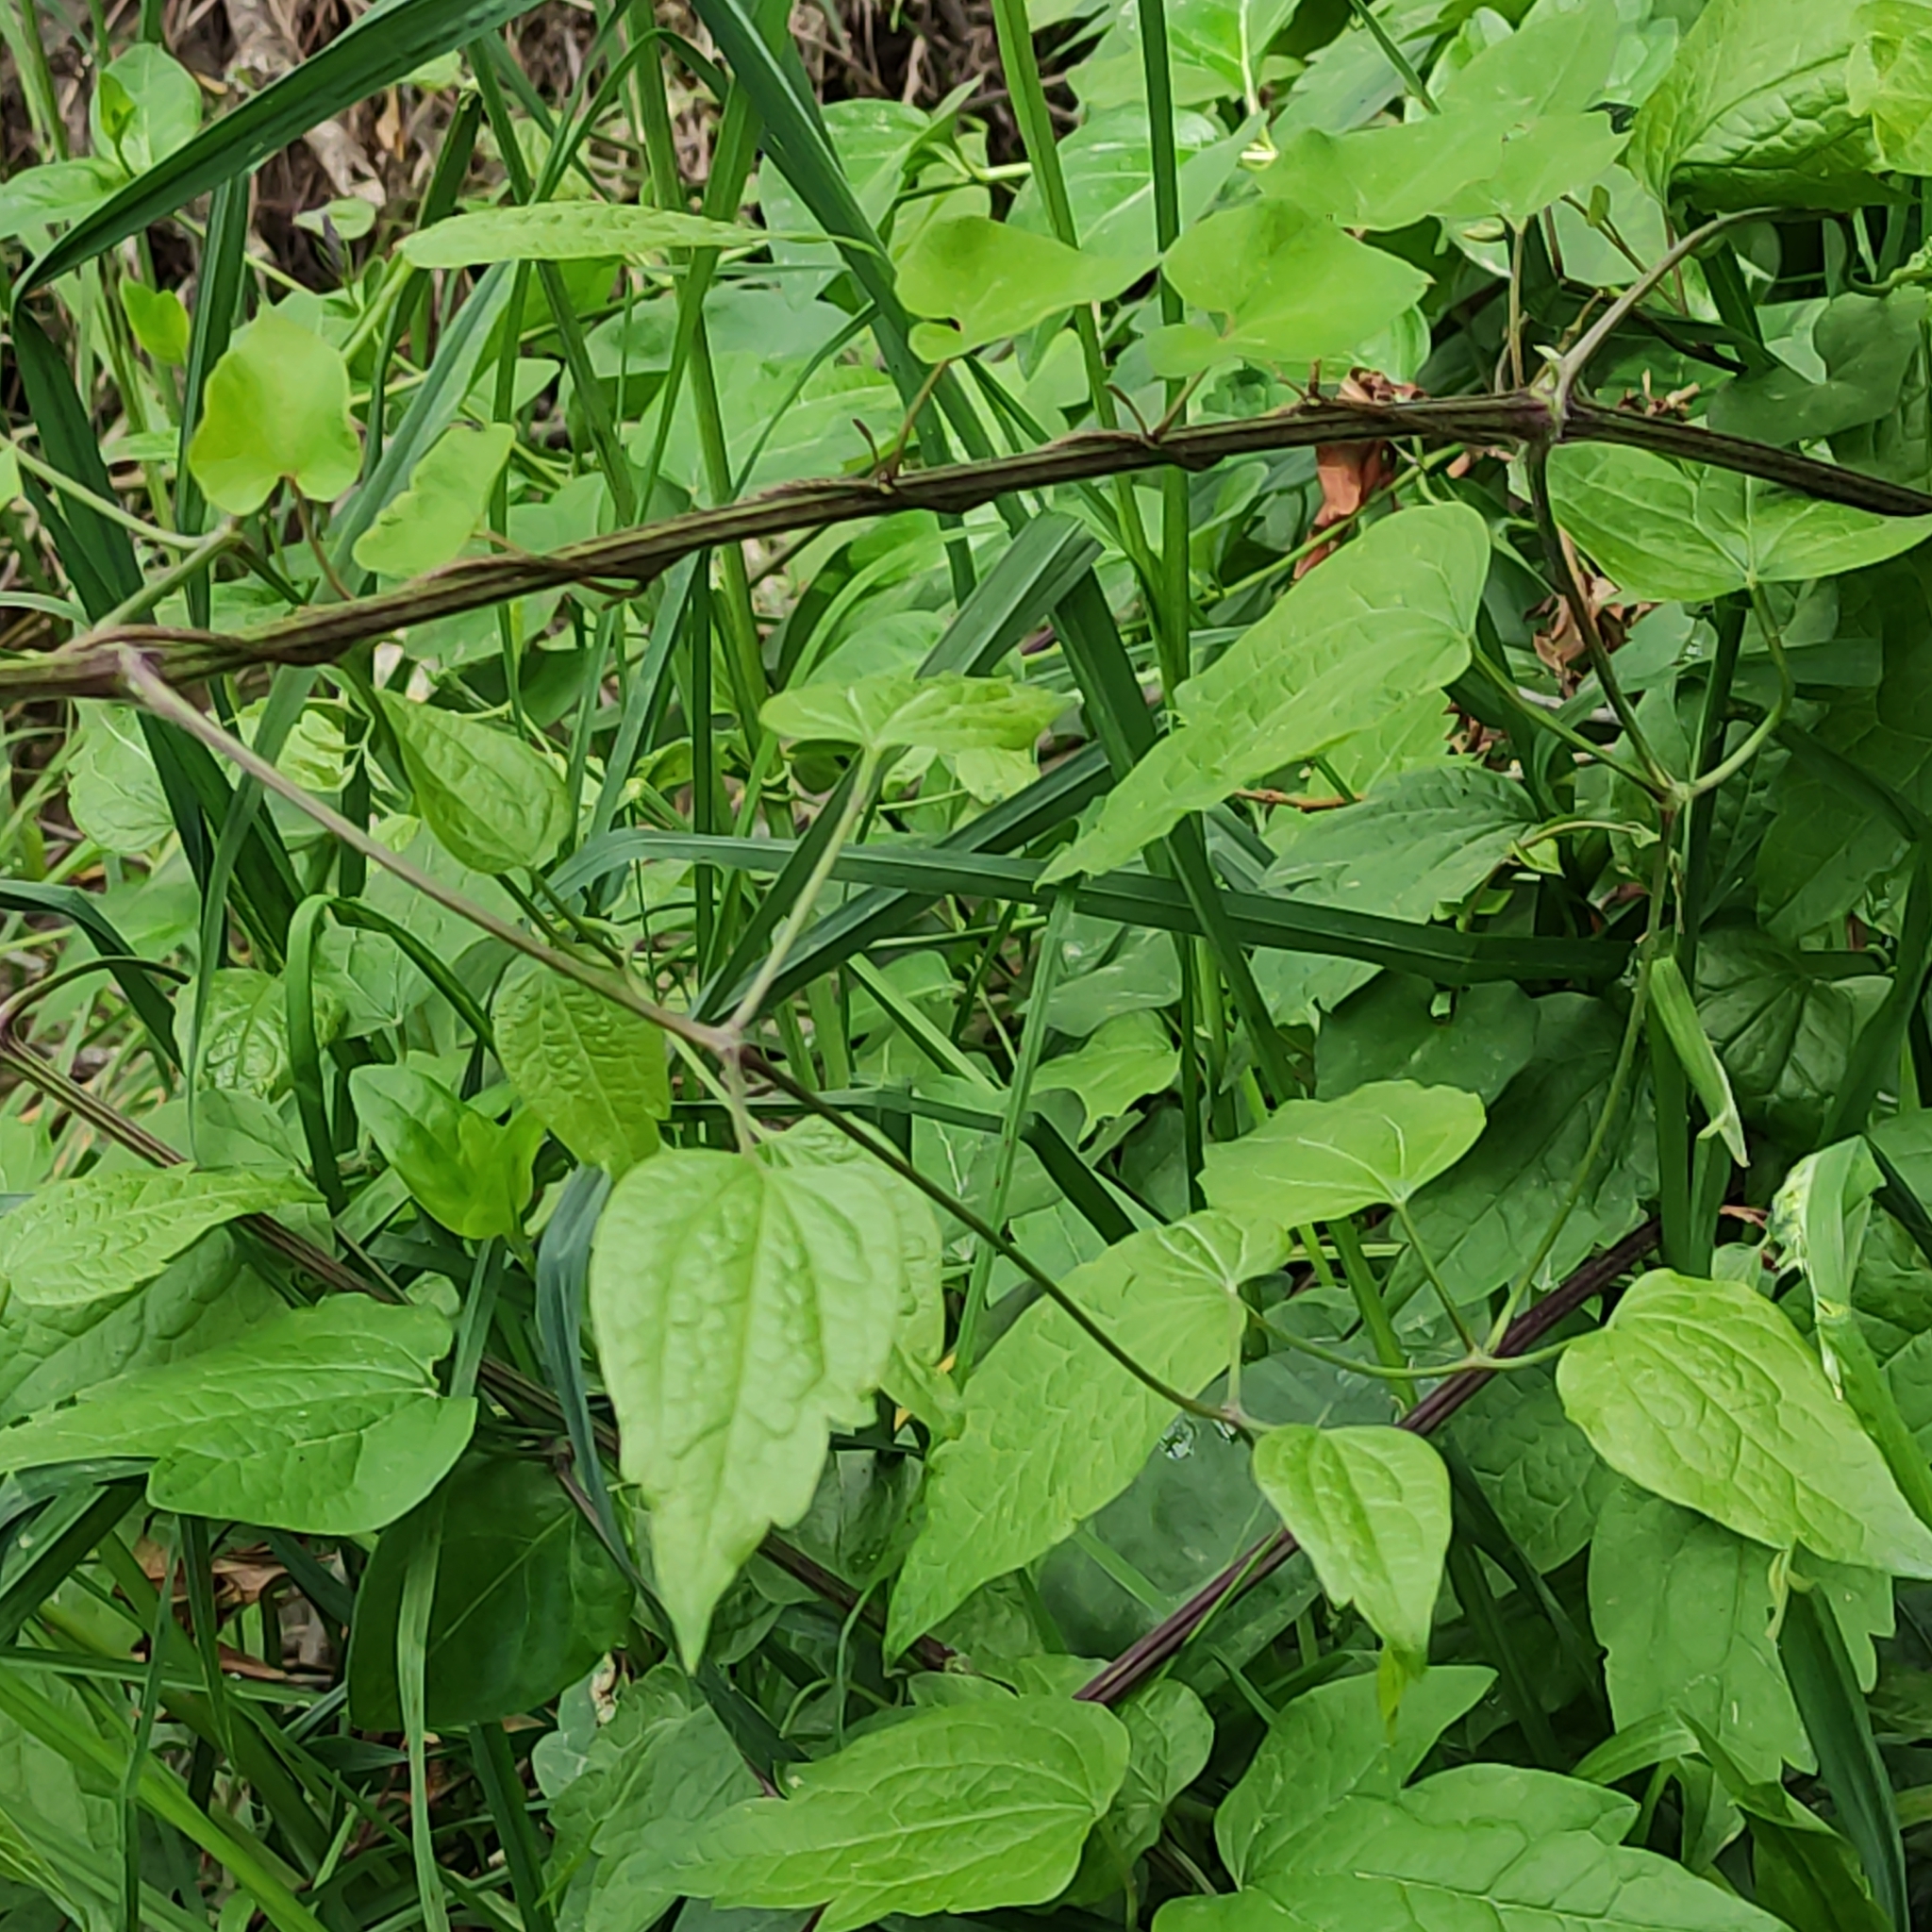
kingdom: Plantae
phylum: Tracheophyta
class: Magnoliopsida
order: Ranunculales
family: Ranunculaceae
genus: Clematis
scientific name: Clematis vitalba
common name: Evergreen clematis
